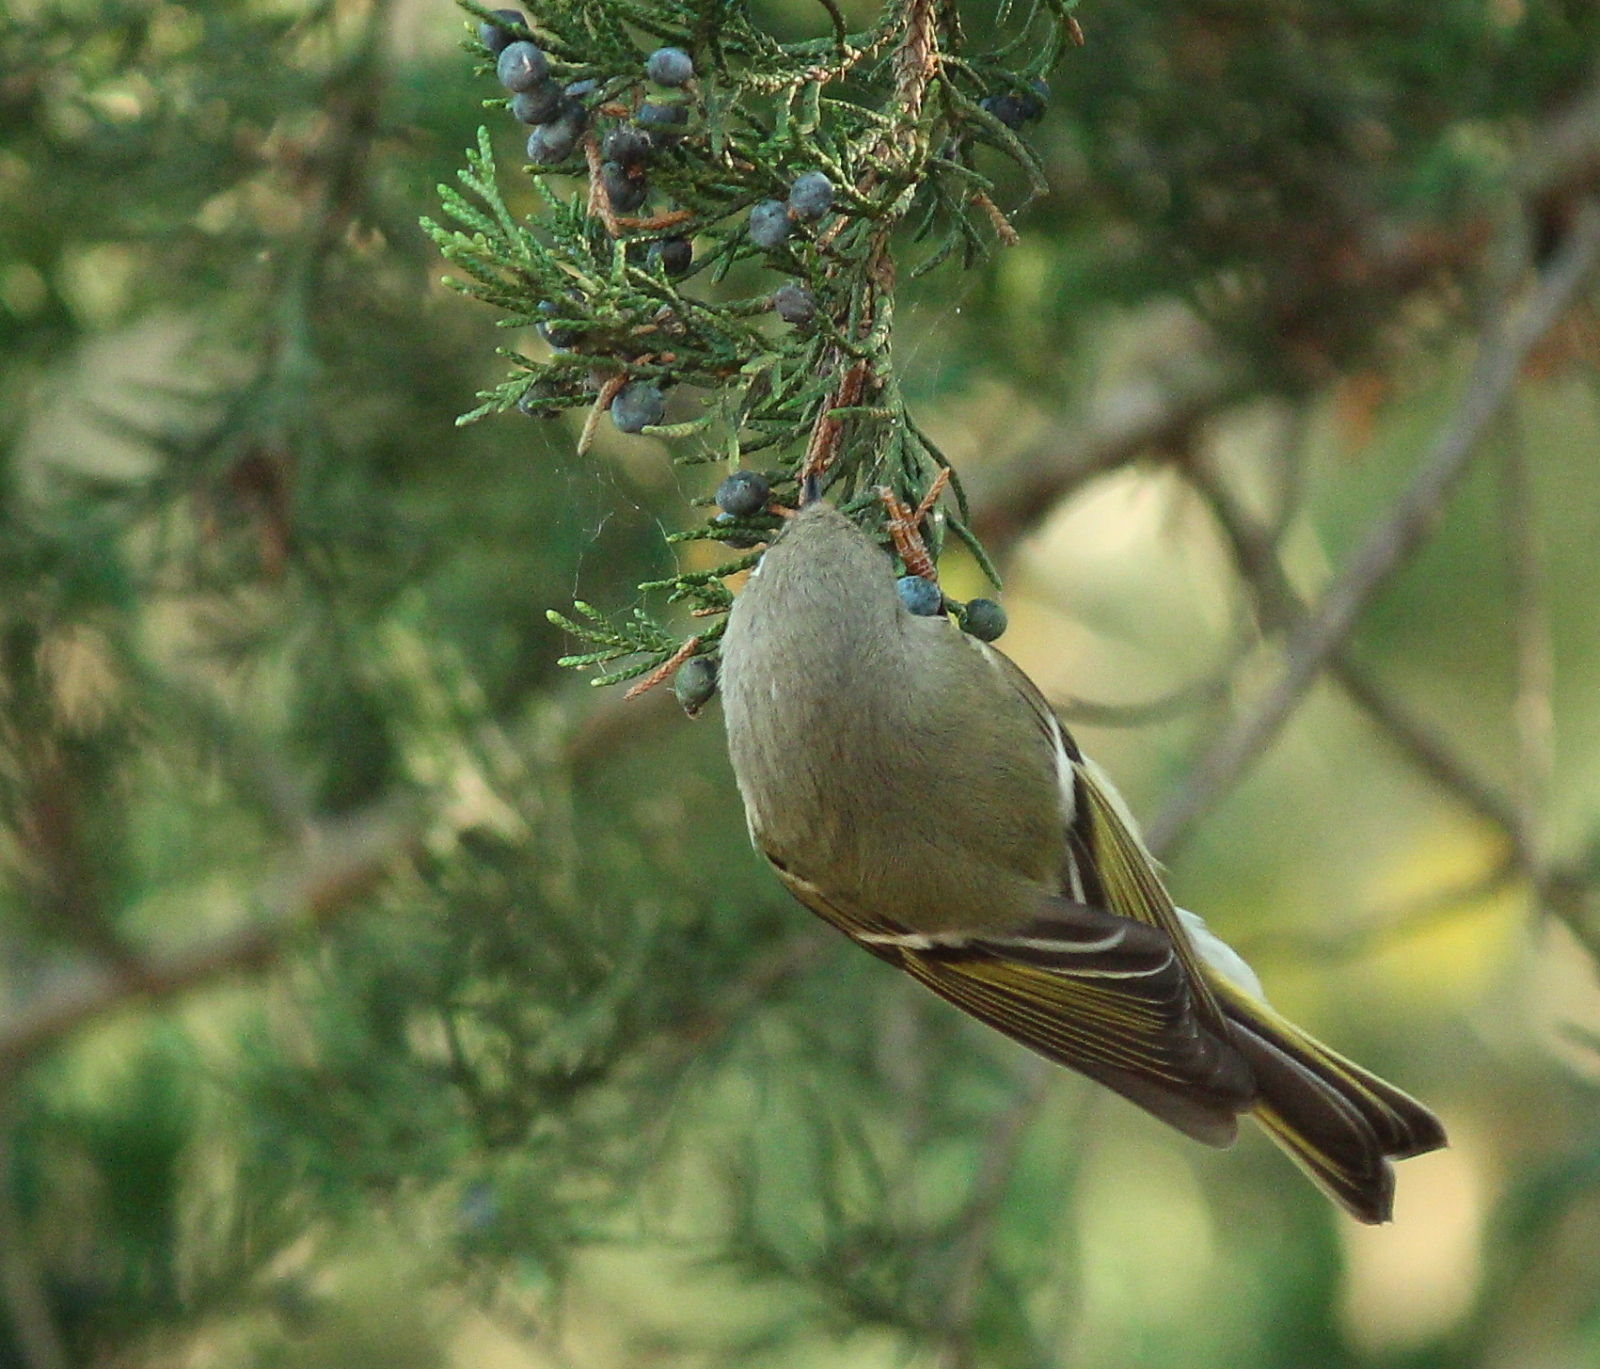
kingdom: Animalia
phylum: Chordata
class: Aves
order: Passeriformes
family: Regulidae
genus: Regulus
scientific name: Regulus calendula
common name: Ruby-crowned kinglet
